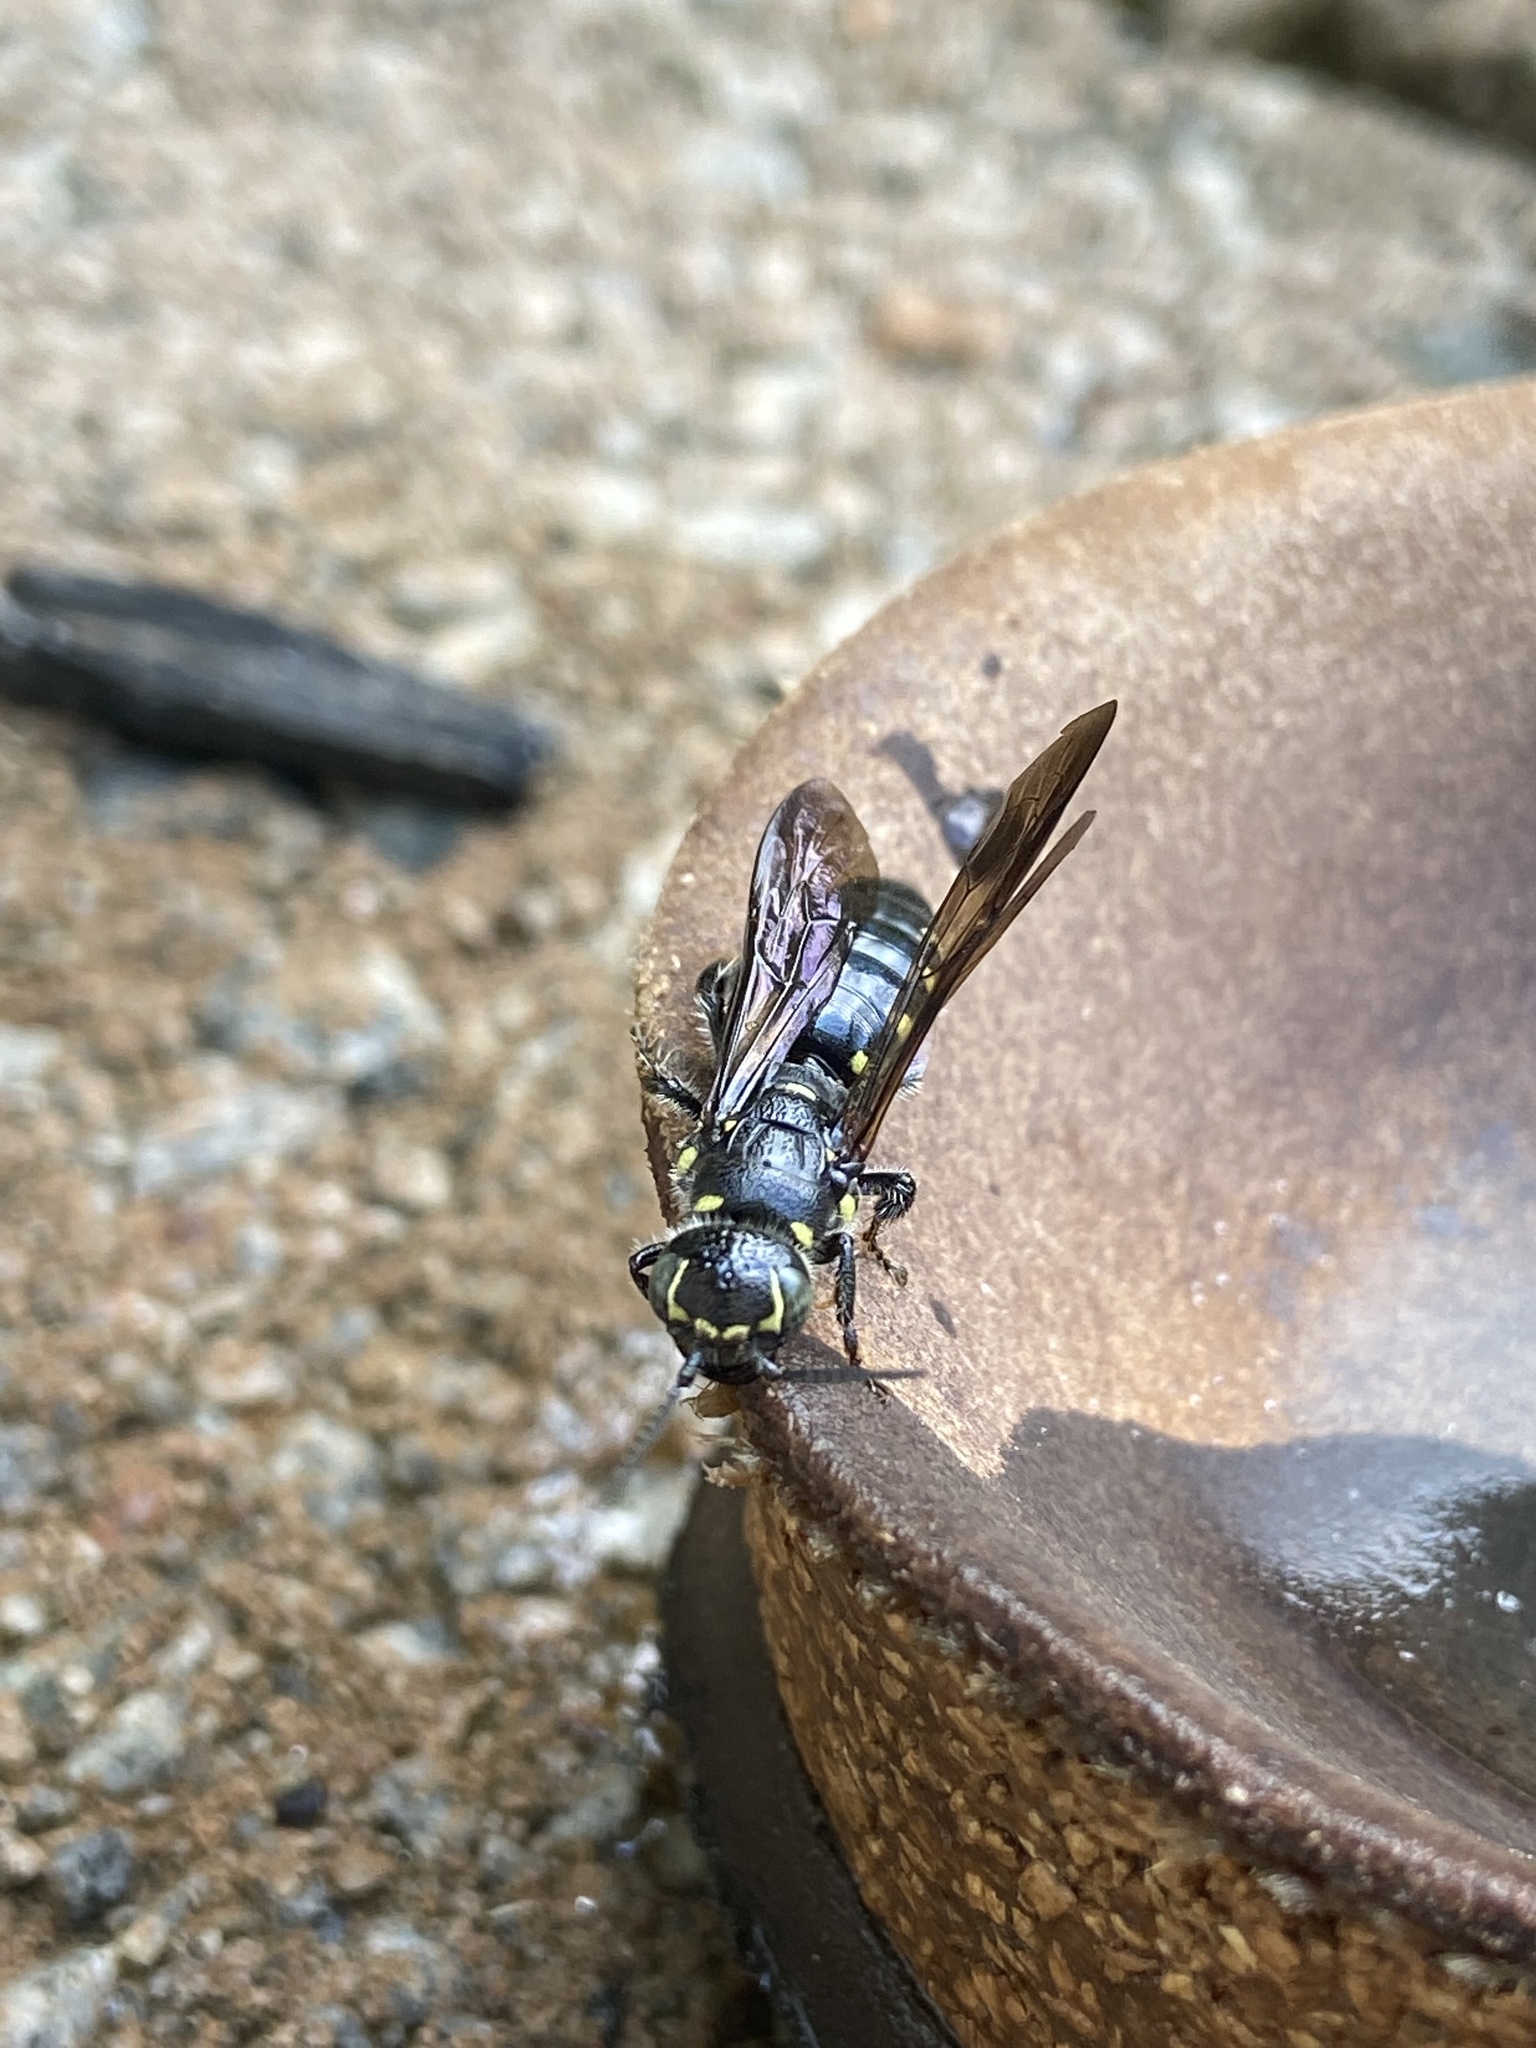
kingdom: Animalia
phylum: Arthropoda
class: Insecta
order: Hymenoptera
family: Tiphiidae
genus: Myzinum
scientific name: Myzinum obscurum
